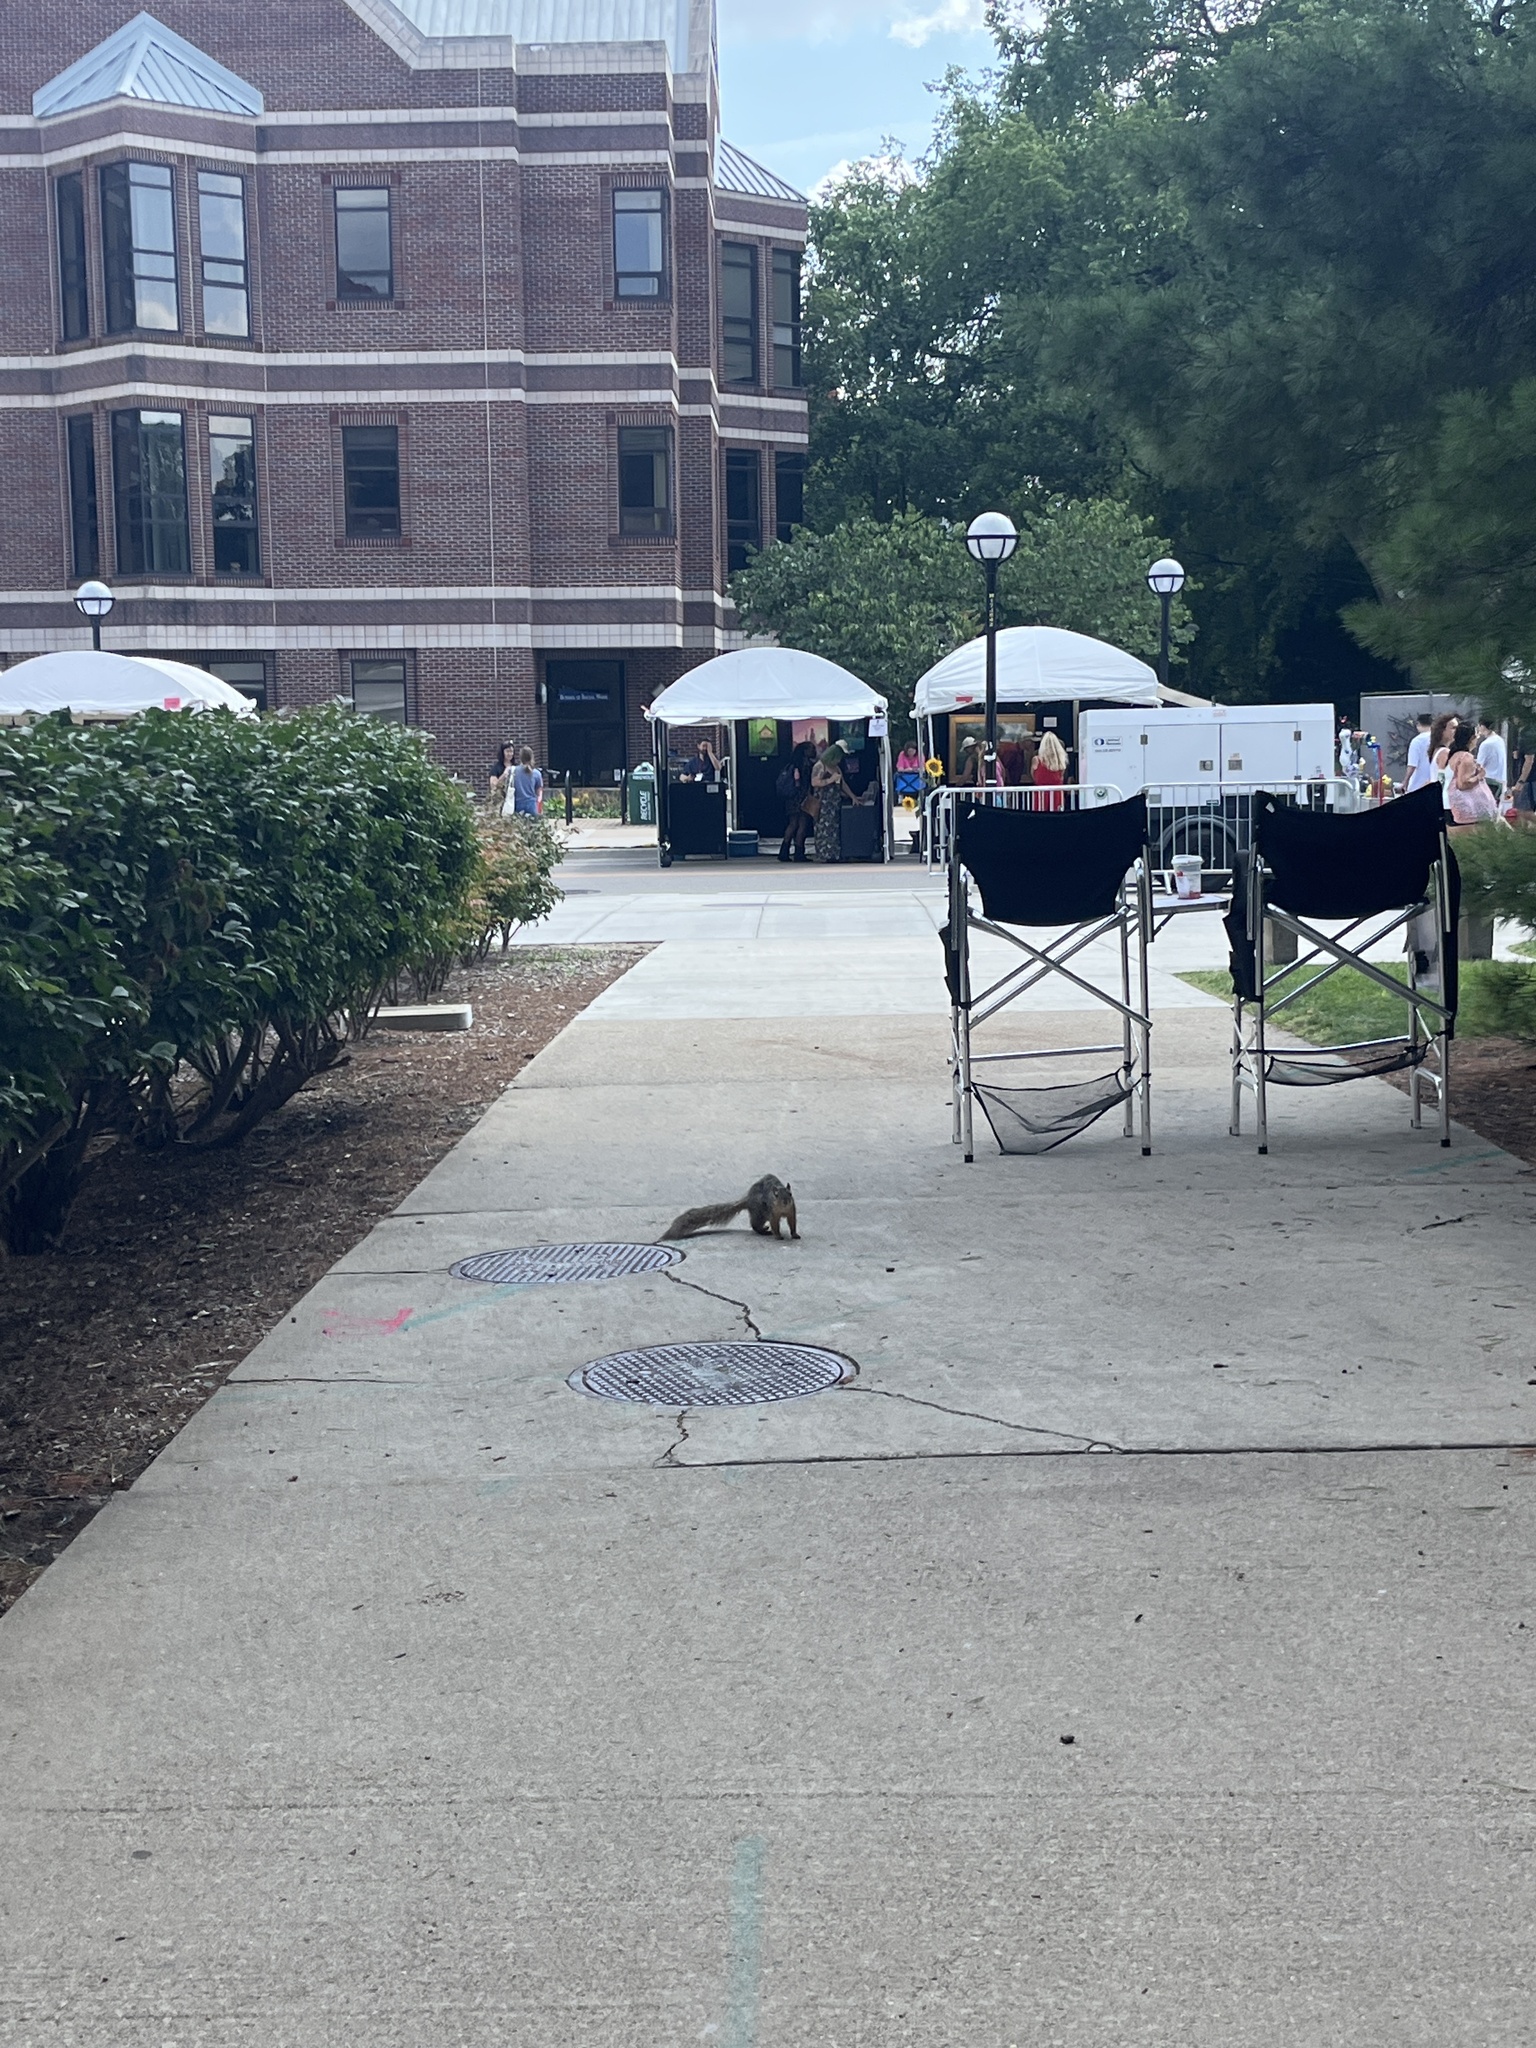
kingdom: Animalia
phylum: Chordata
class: Mammalia
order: Rodentia
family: Sciuridae
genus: Sciurus
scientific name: Sciurus niger
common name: Fox squirrel
